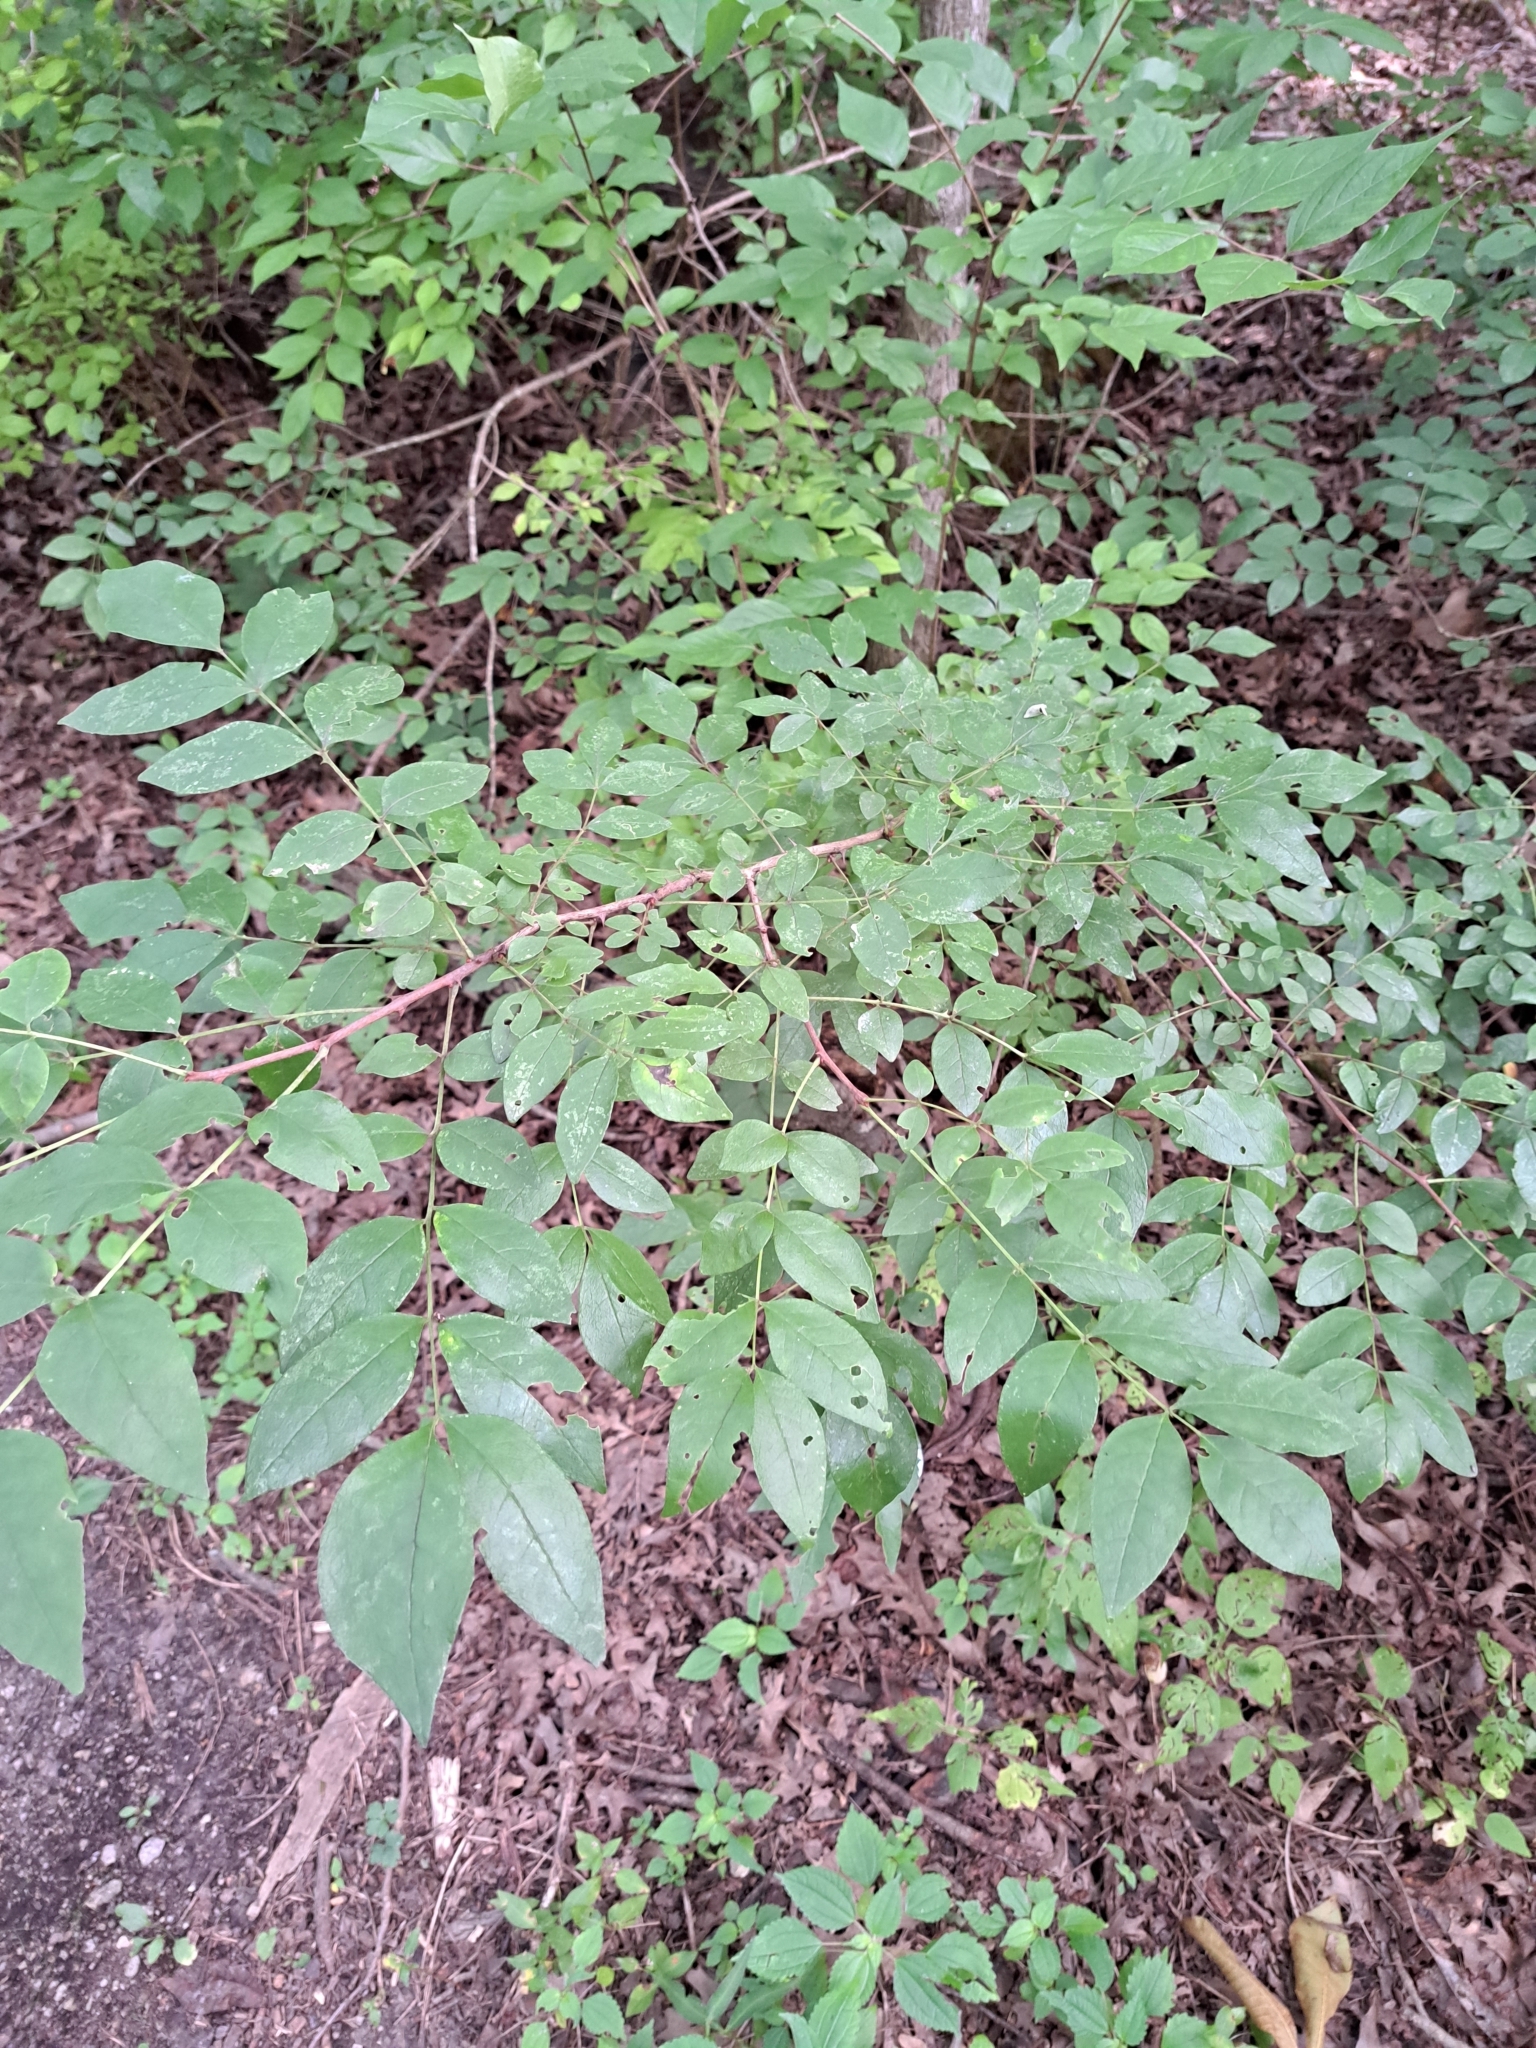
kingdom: Plantae
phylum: Tracheophyta
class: Magnoliopsida
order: Sapindales
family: Rutaceae
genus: Zanthoxylum
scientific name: Zanthoxylum americanum
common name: Northern prickly-ash
